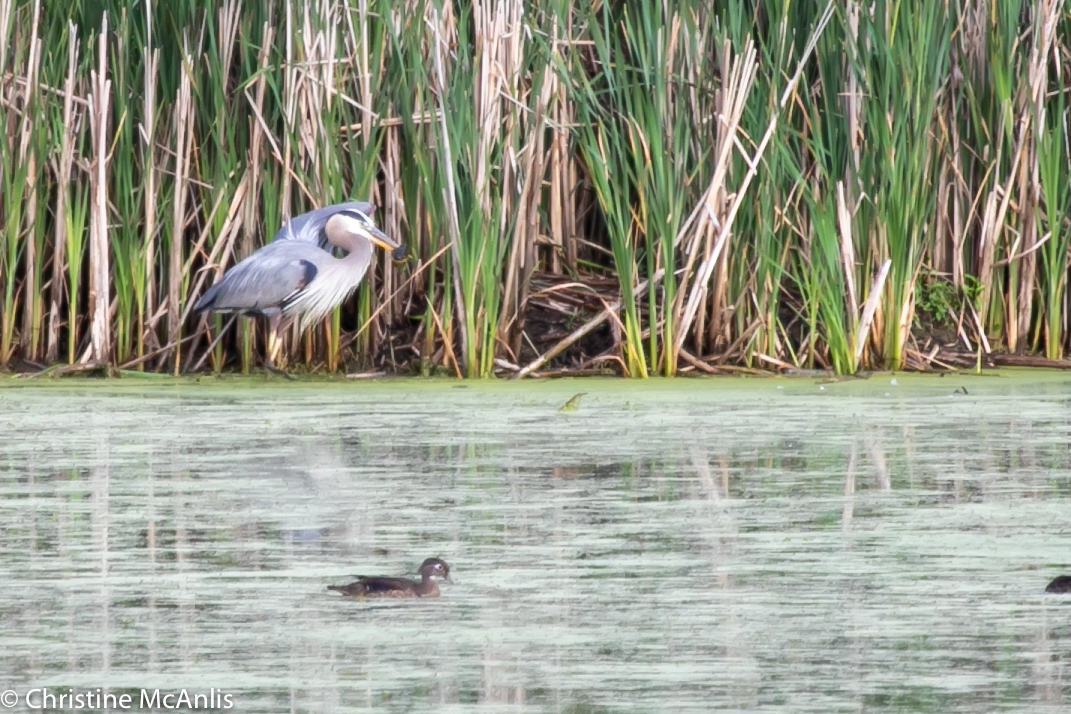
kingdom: Animalia
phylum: Chordata
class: Aves
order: Pelecaniformes
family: Ardeidae
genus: Ardea
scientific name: Ardea herodias
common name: Great blue heron
